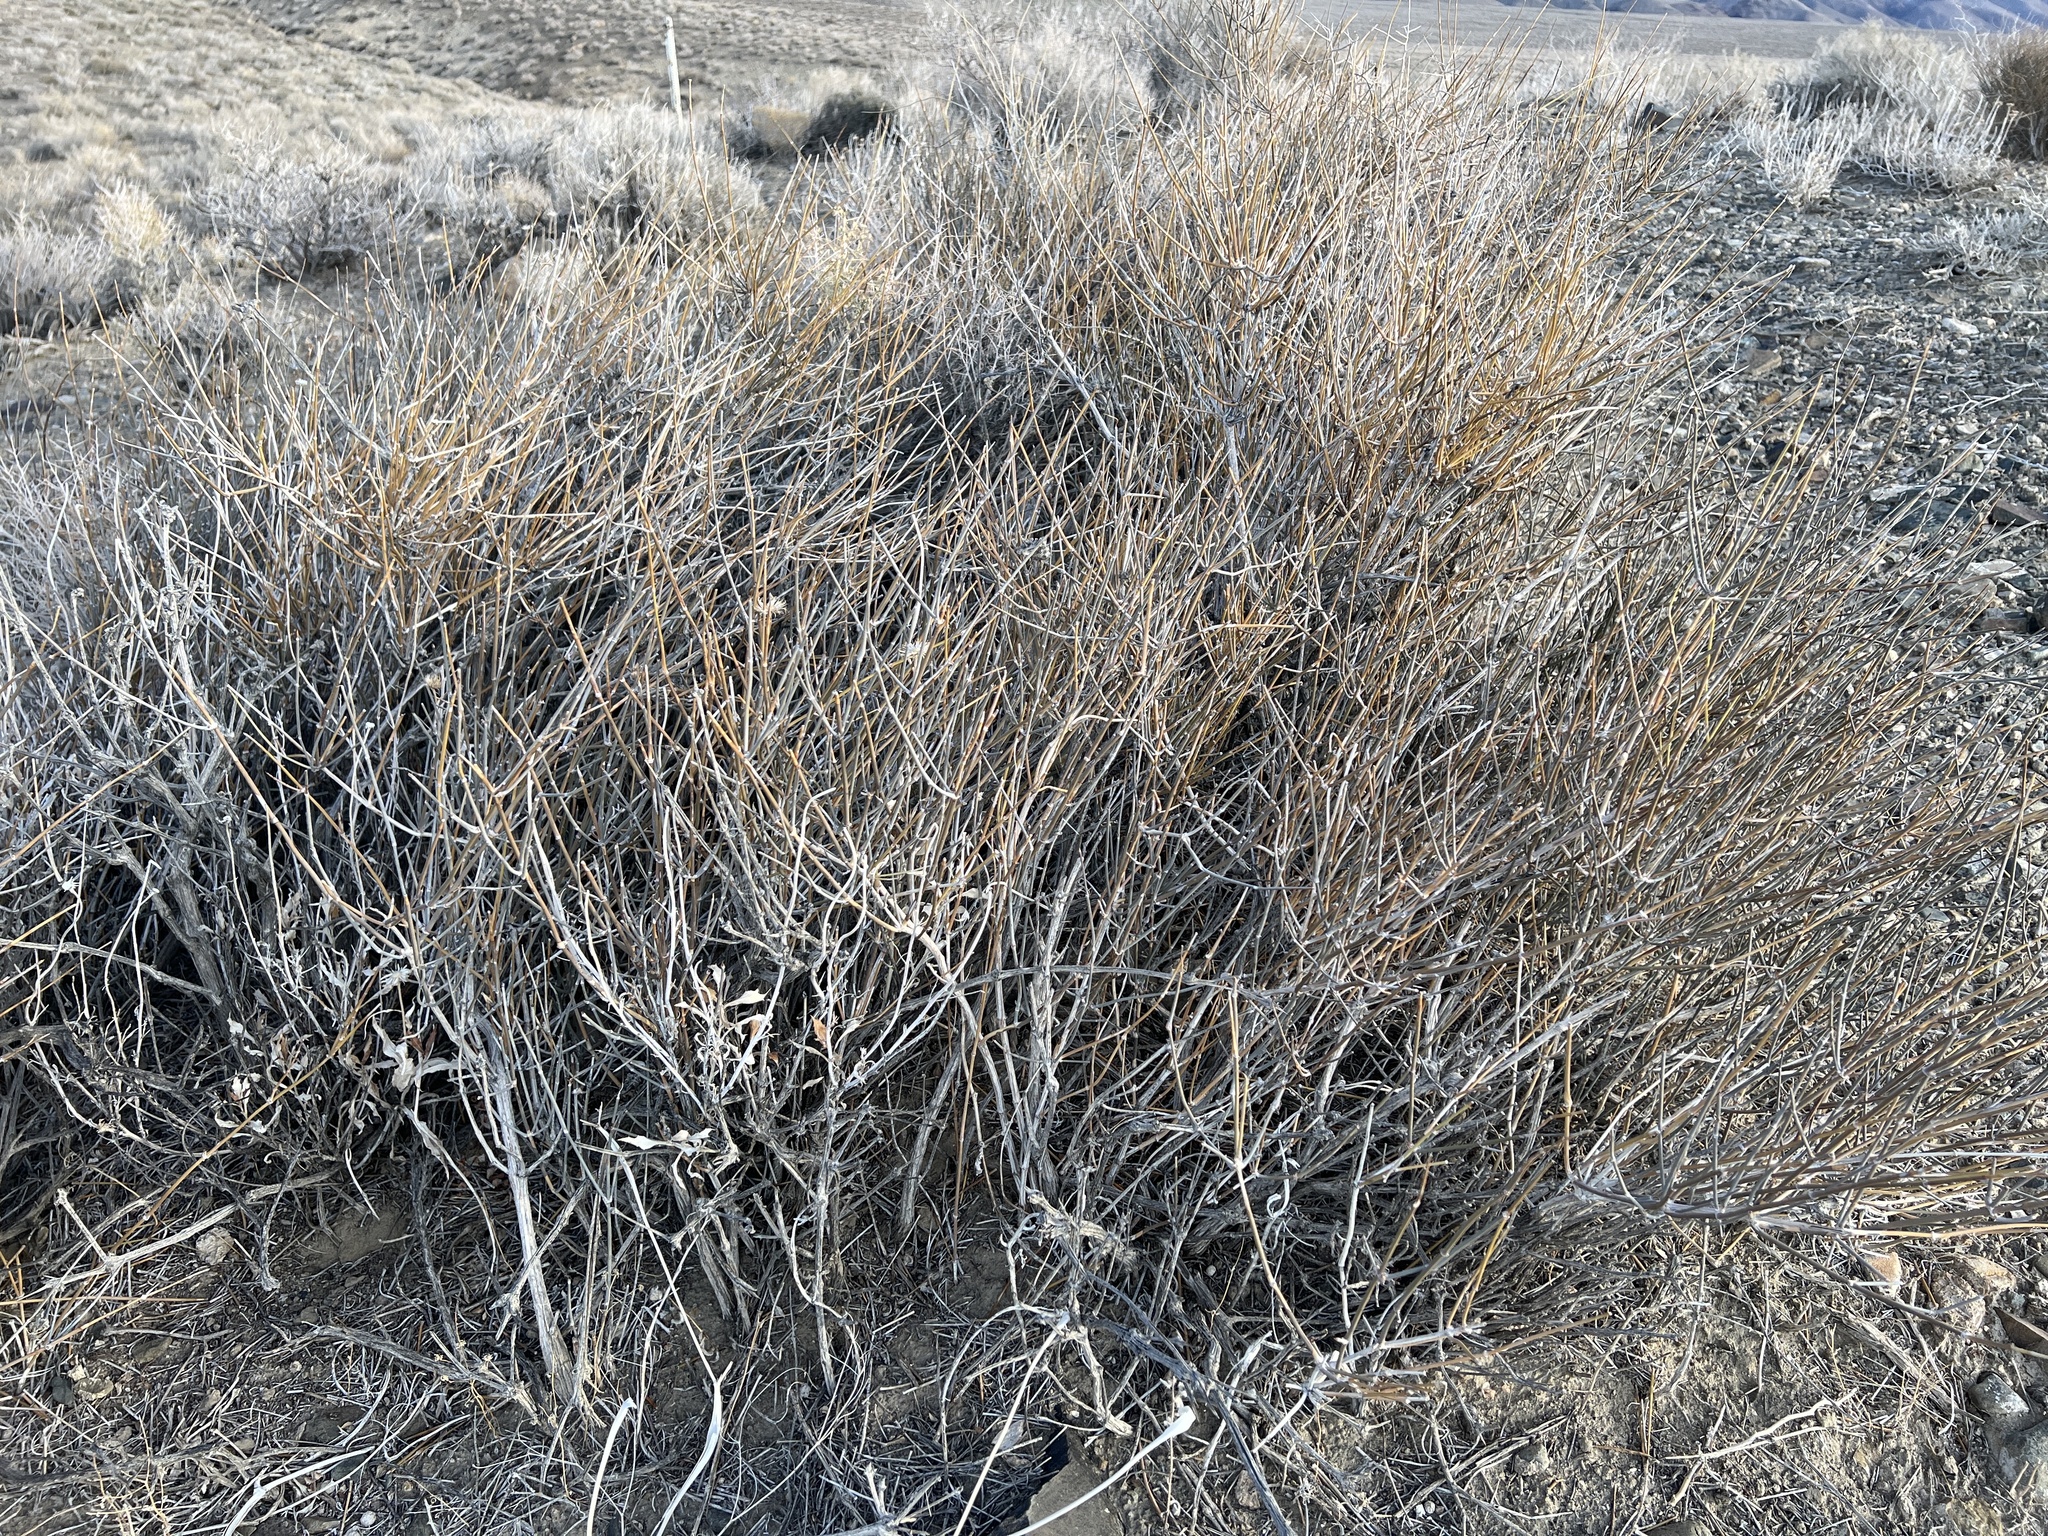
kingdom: Plantae
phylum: Tracheophyta
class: Gnetopsida
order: Ephedrales
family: Ephedraceae
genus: Ephedra
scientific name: Ephedra nevadensis
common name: Gray ephedra
